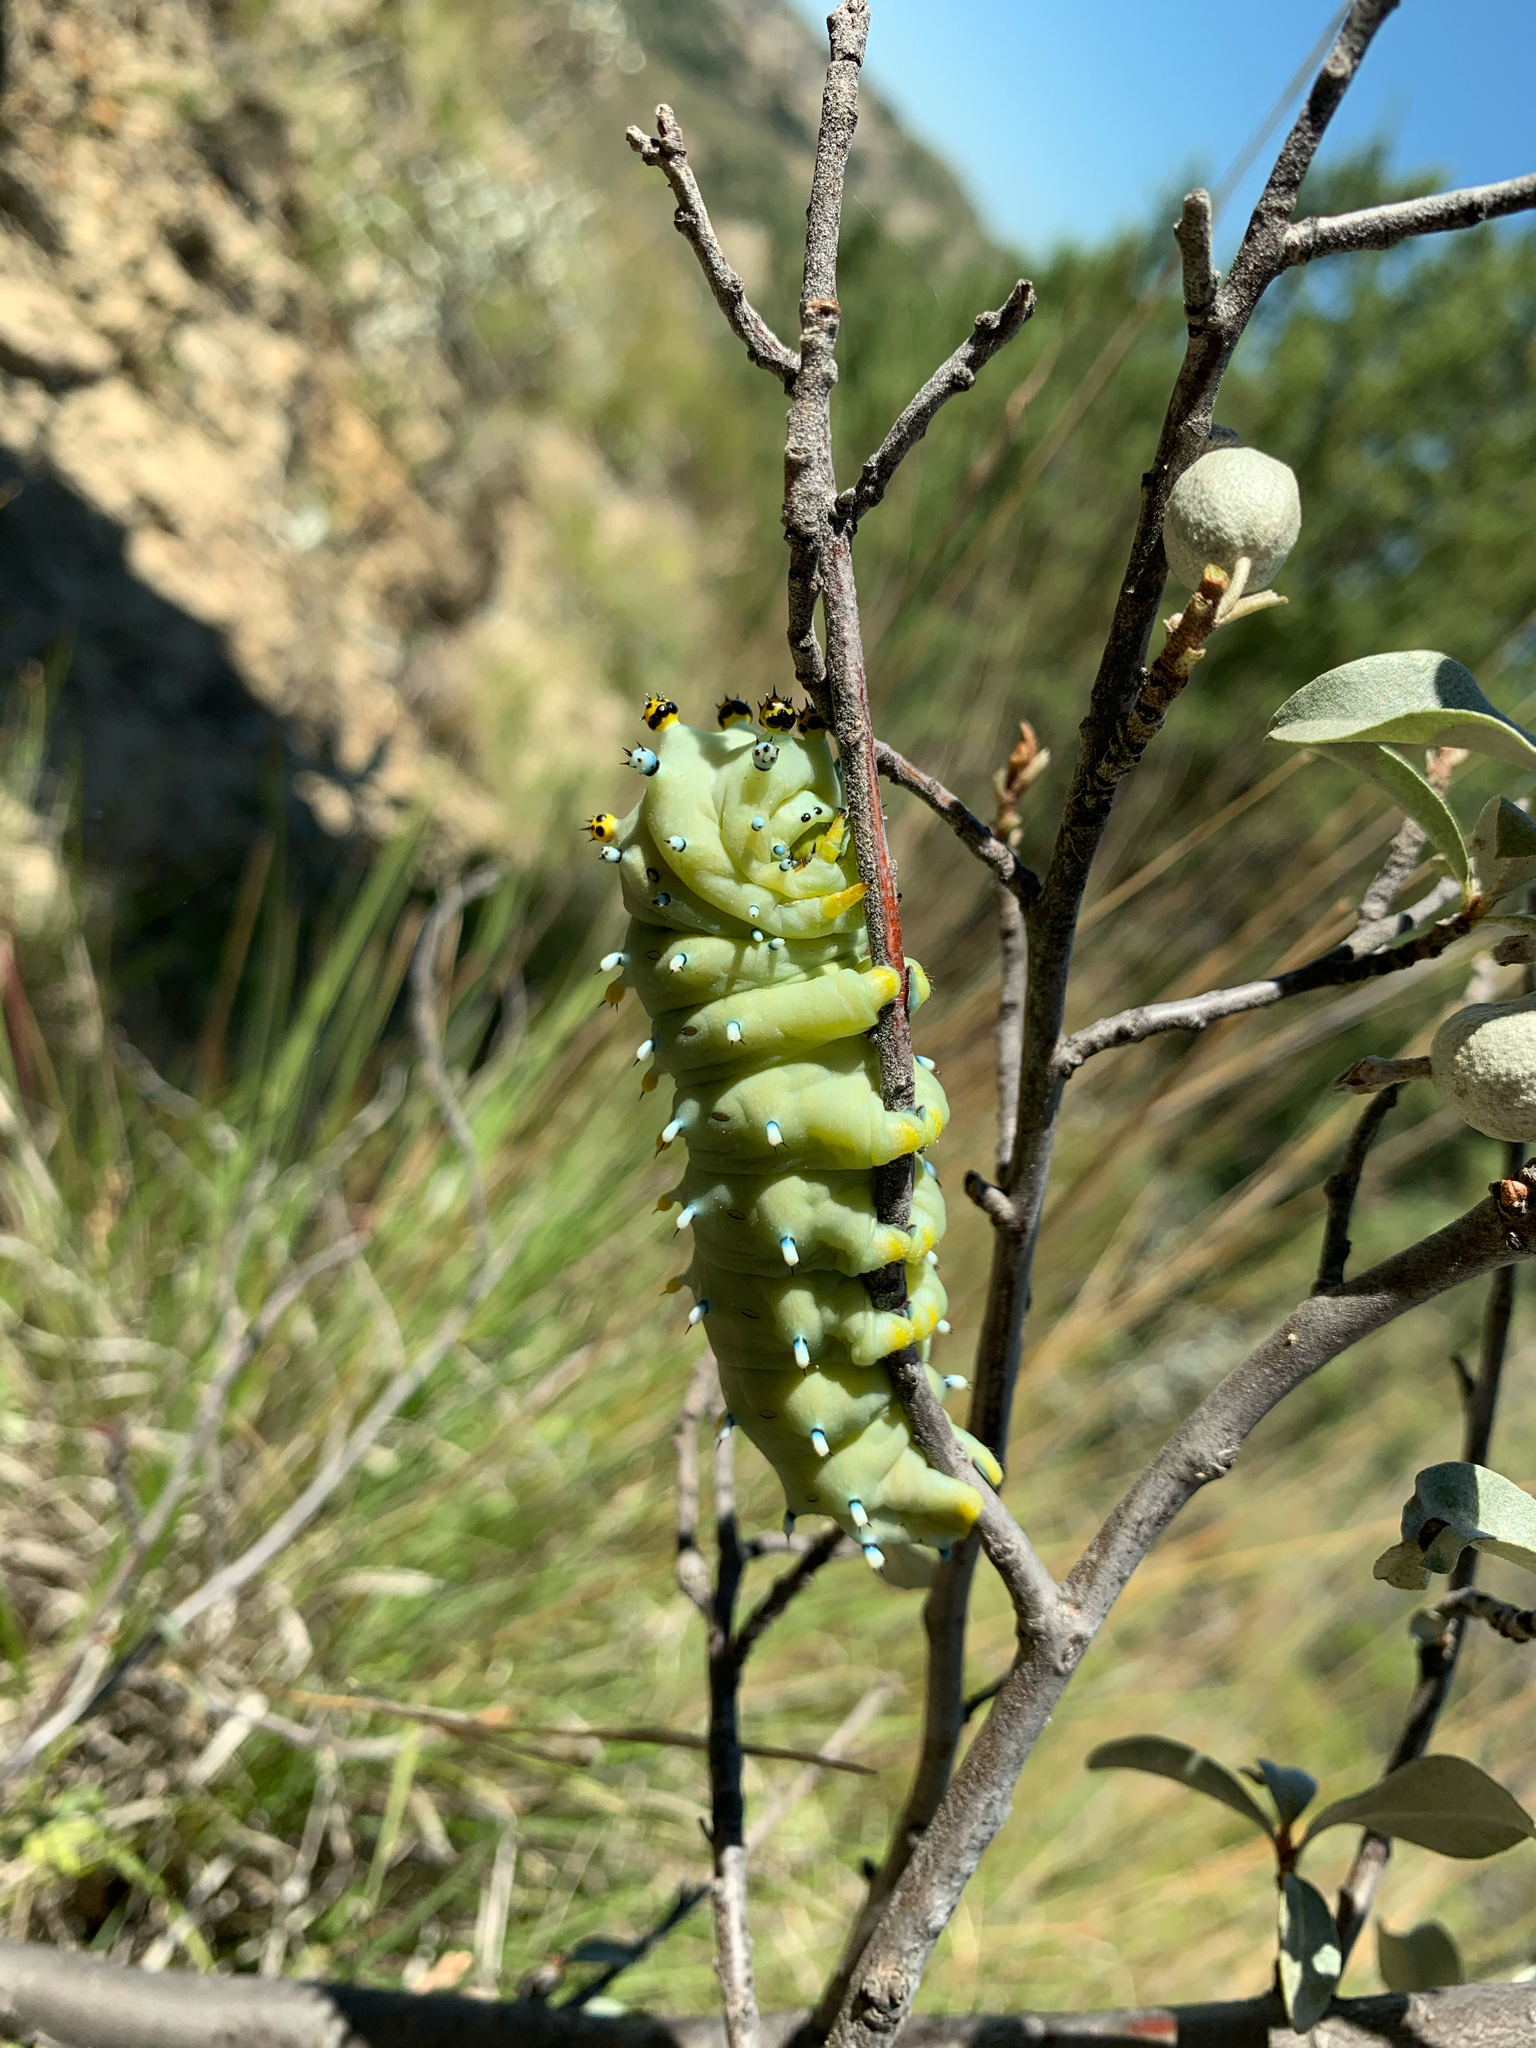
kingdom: Animalia
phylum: Arthropoda
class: Insecta
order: Lepidoptera
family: Saturniidae
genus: Hyalophora
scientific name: Hyalophora gloveri
